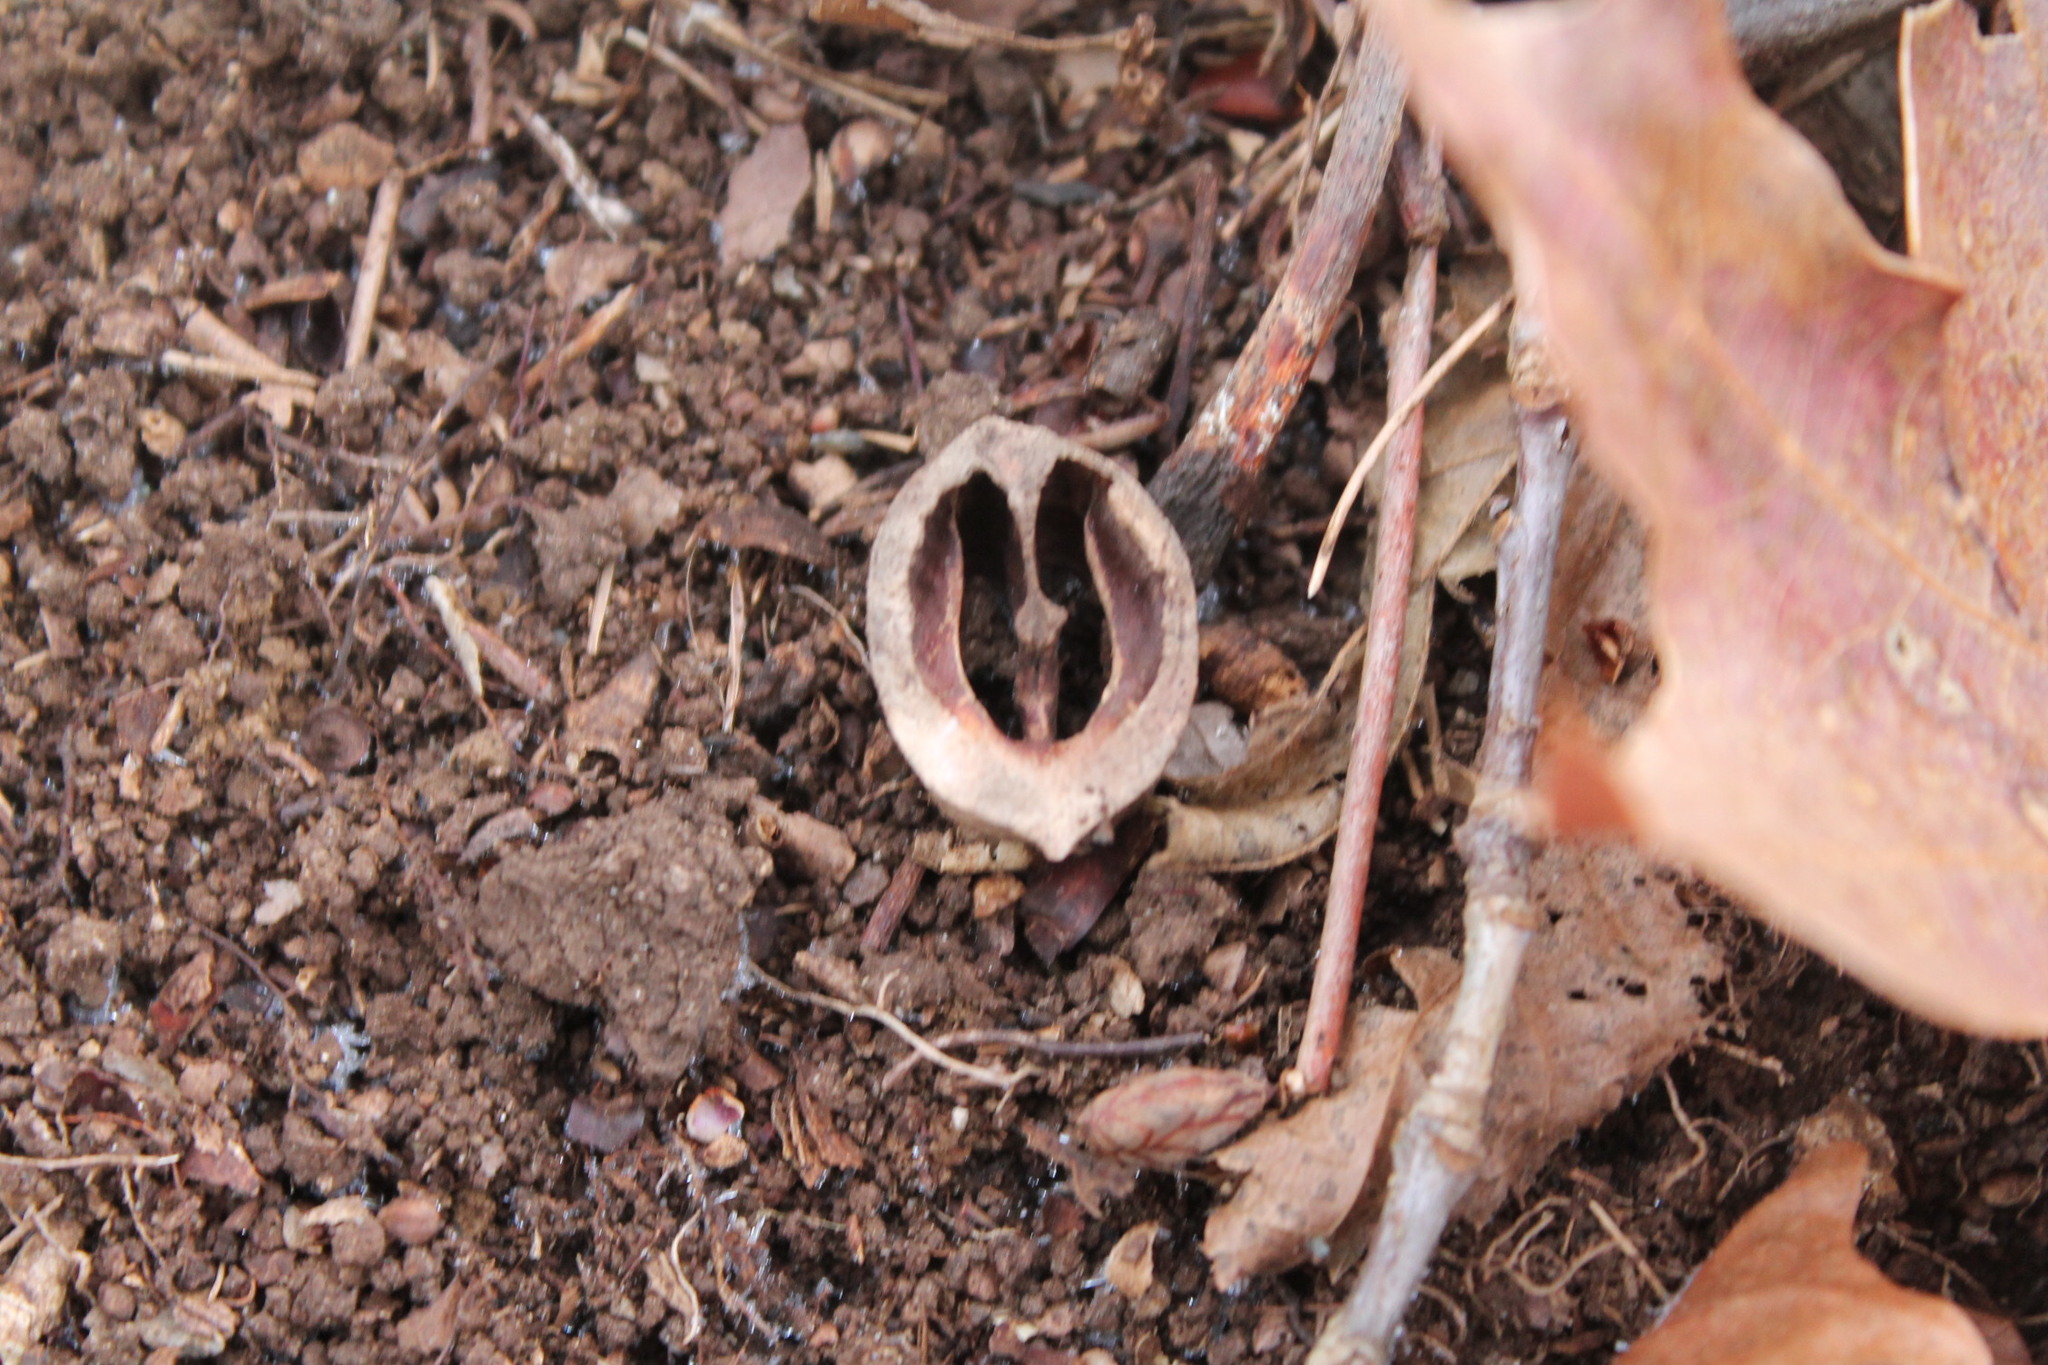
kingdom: Plantae
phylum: Tracheophyta
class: Magnoliopsida
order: Fagales
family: Juglandaceae
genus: Carya
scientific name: Carya glabra
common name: Pignut hickory
